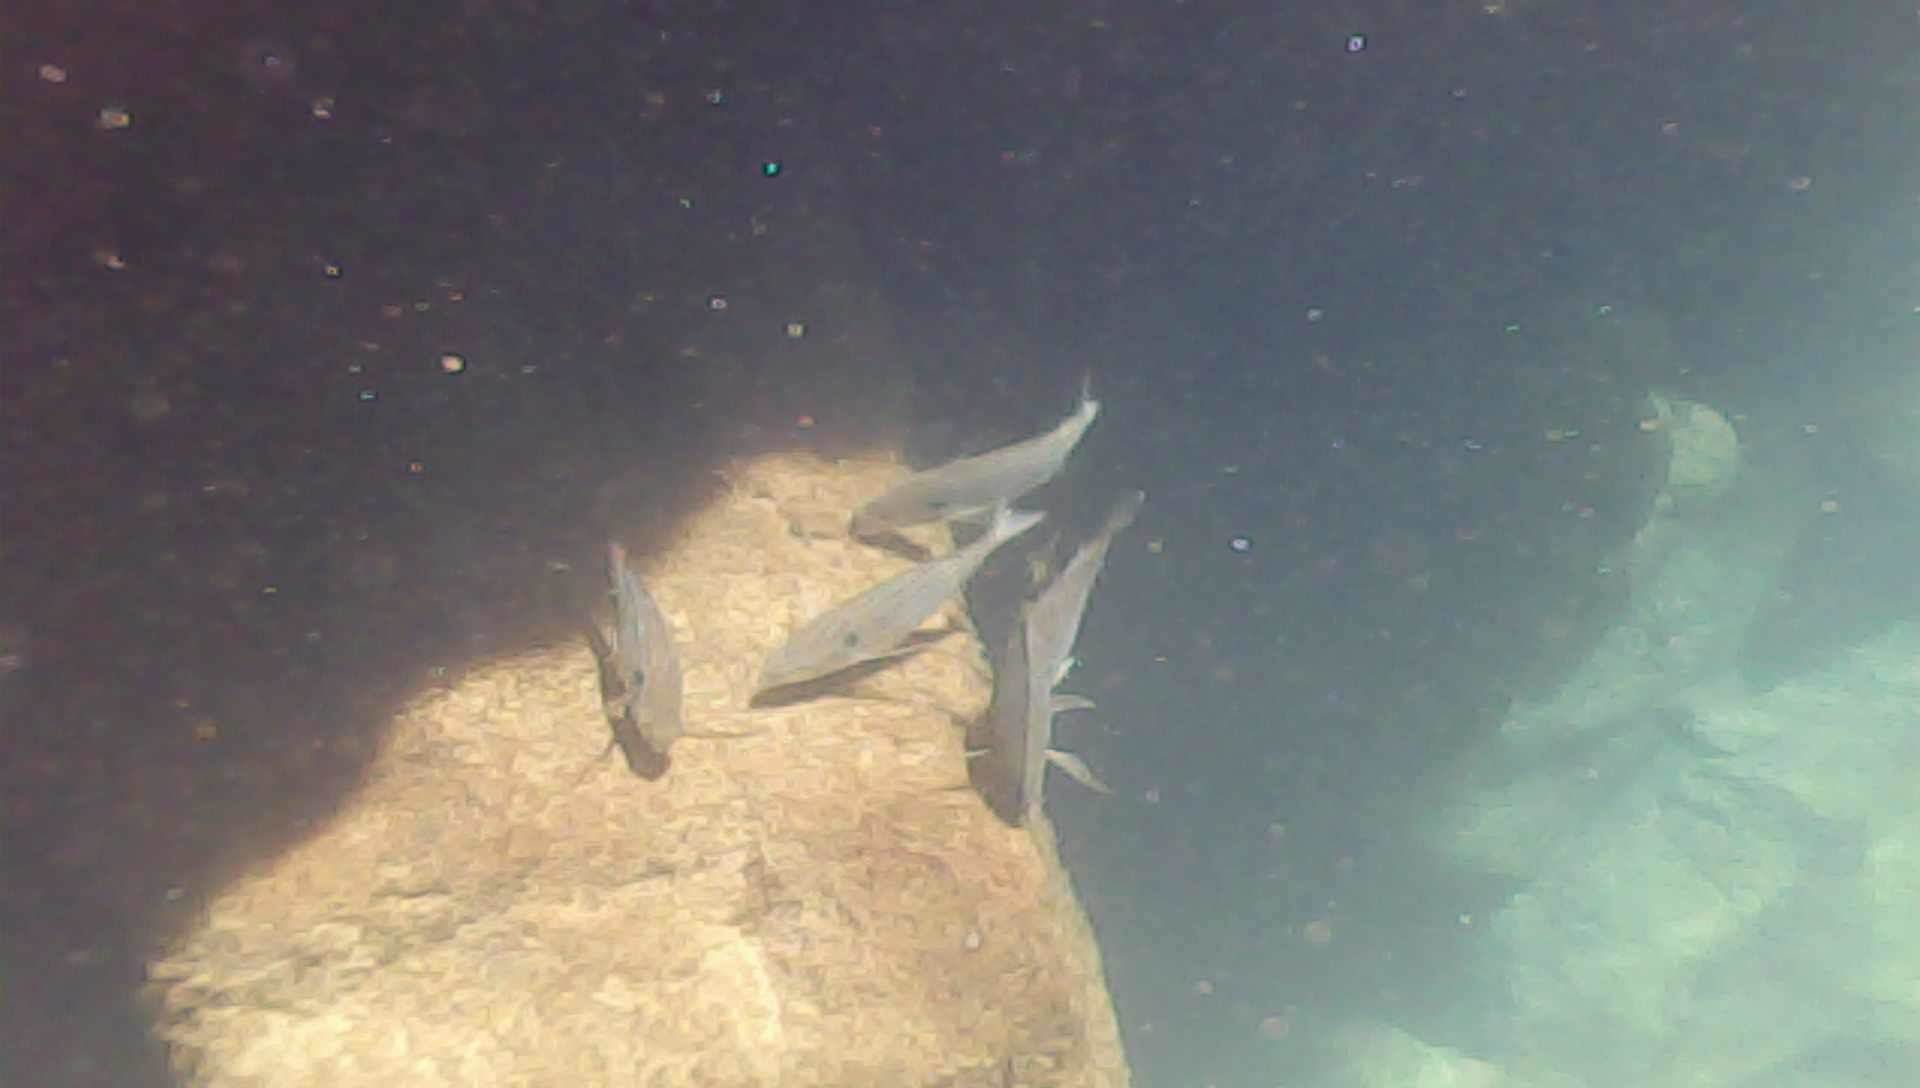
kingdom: Animalia
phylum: Chordata
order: Perciformes
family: Sparidae
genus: Archosargus
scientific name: Archosargus pourtalesii
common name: Blackspot porgy
